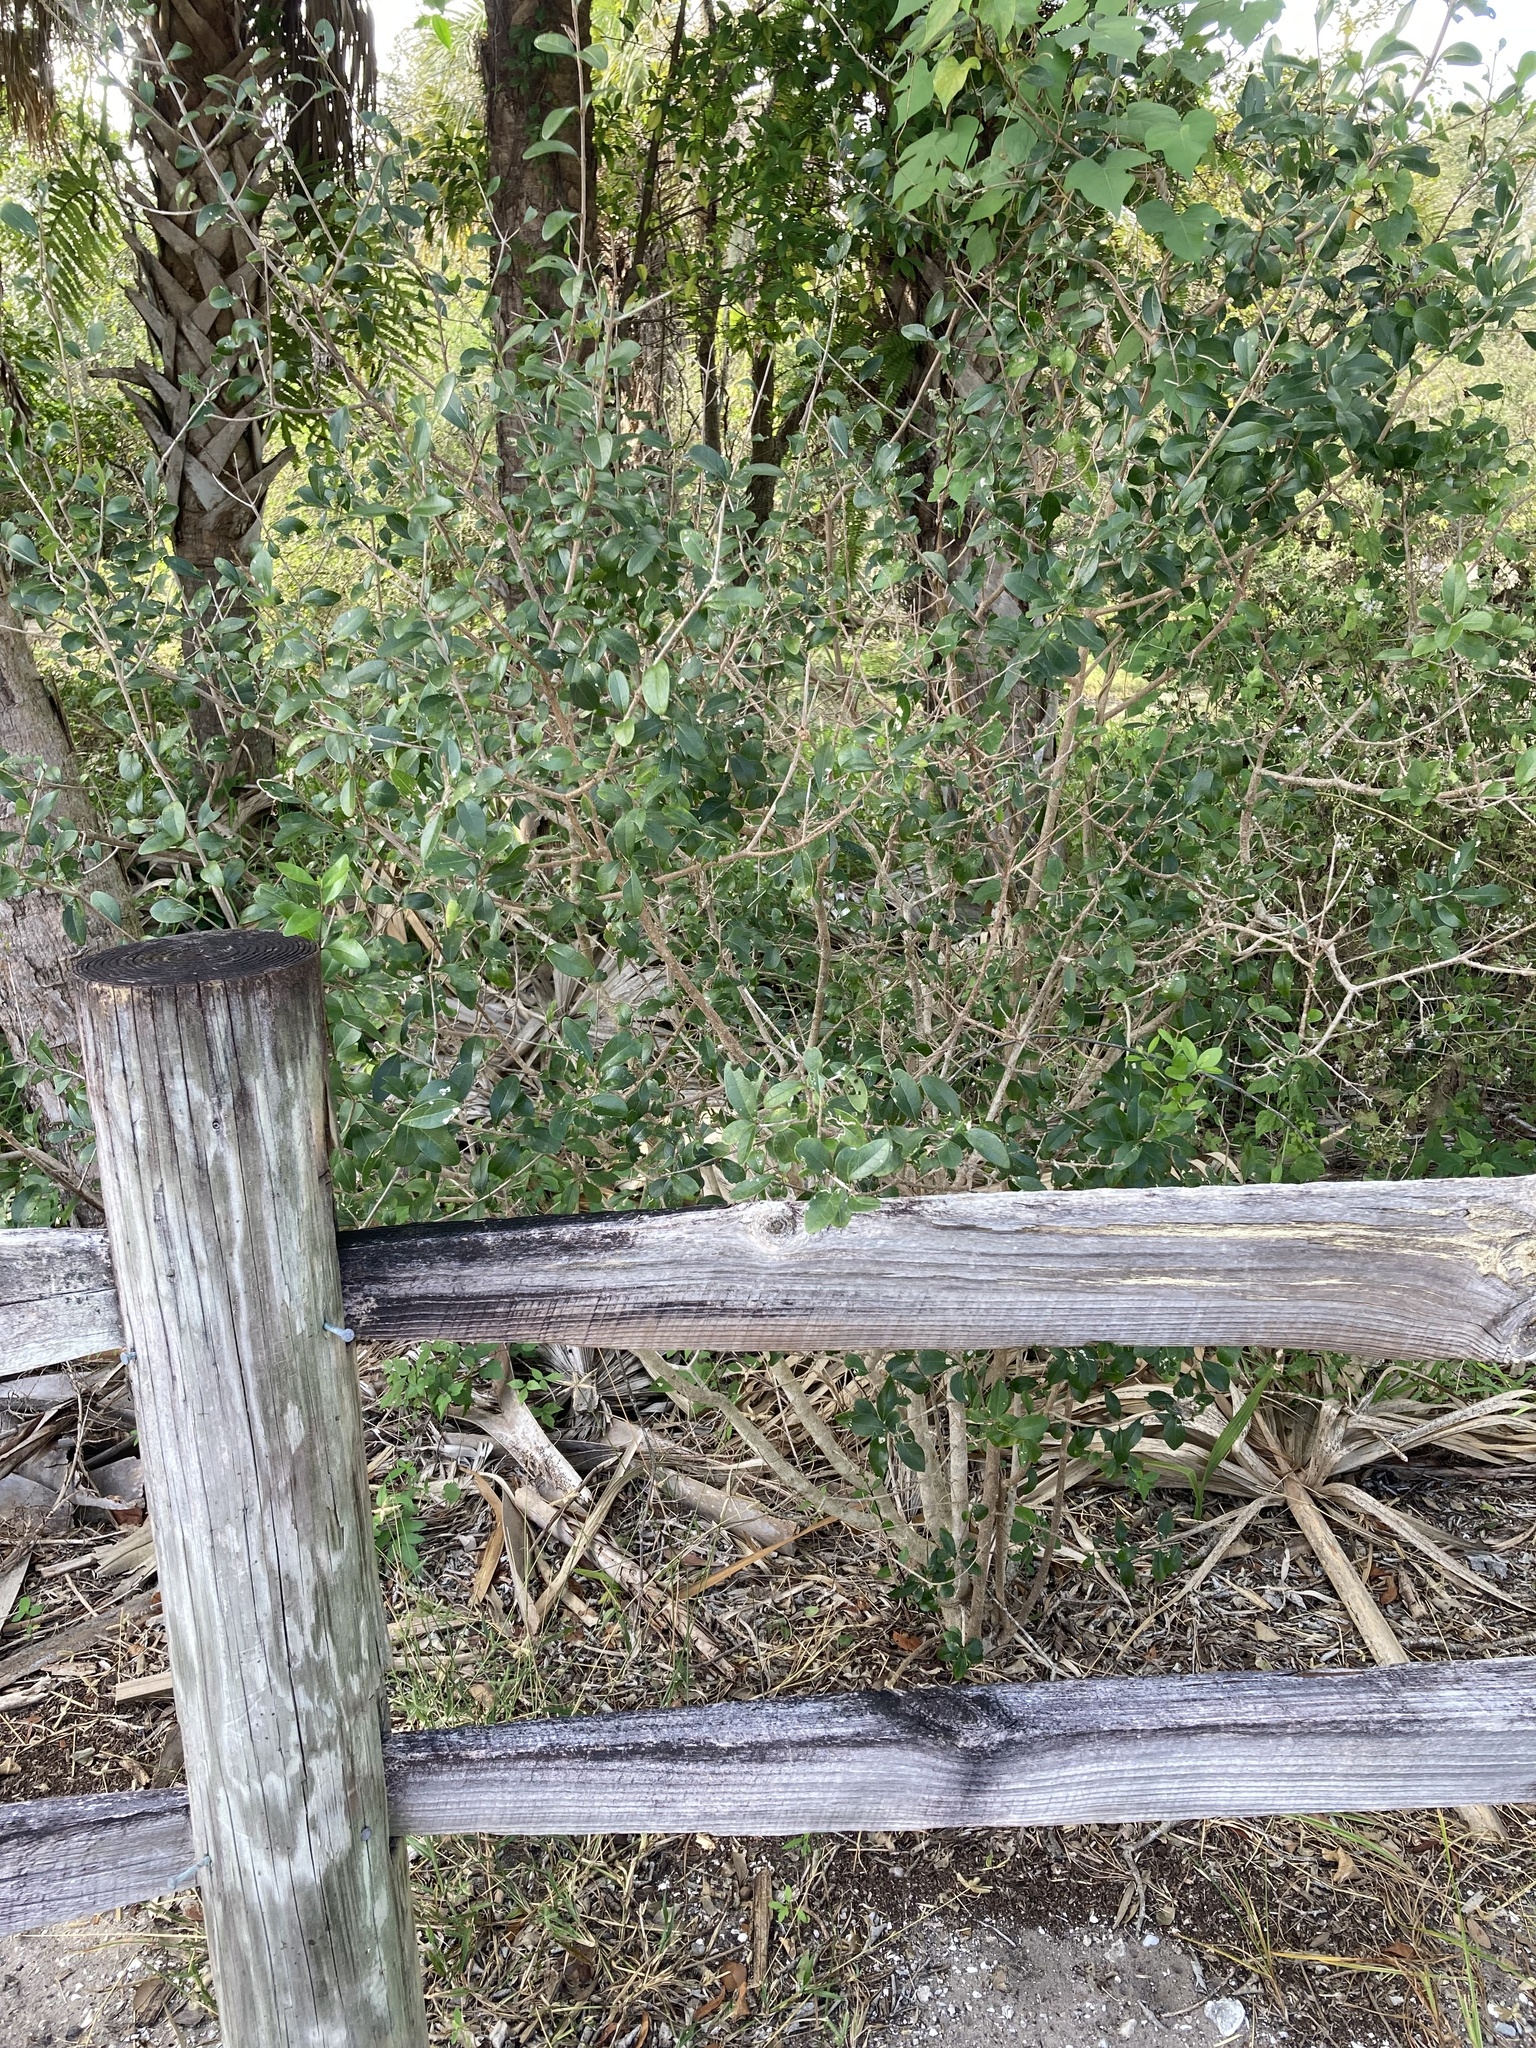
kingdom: Plantae
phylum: Tracheophyta
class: Magnoliopsida
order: Lamiales
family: Oleaceae
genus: Forestiera
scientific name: Forestiera segregata
